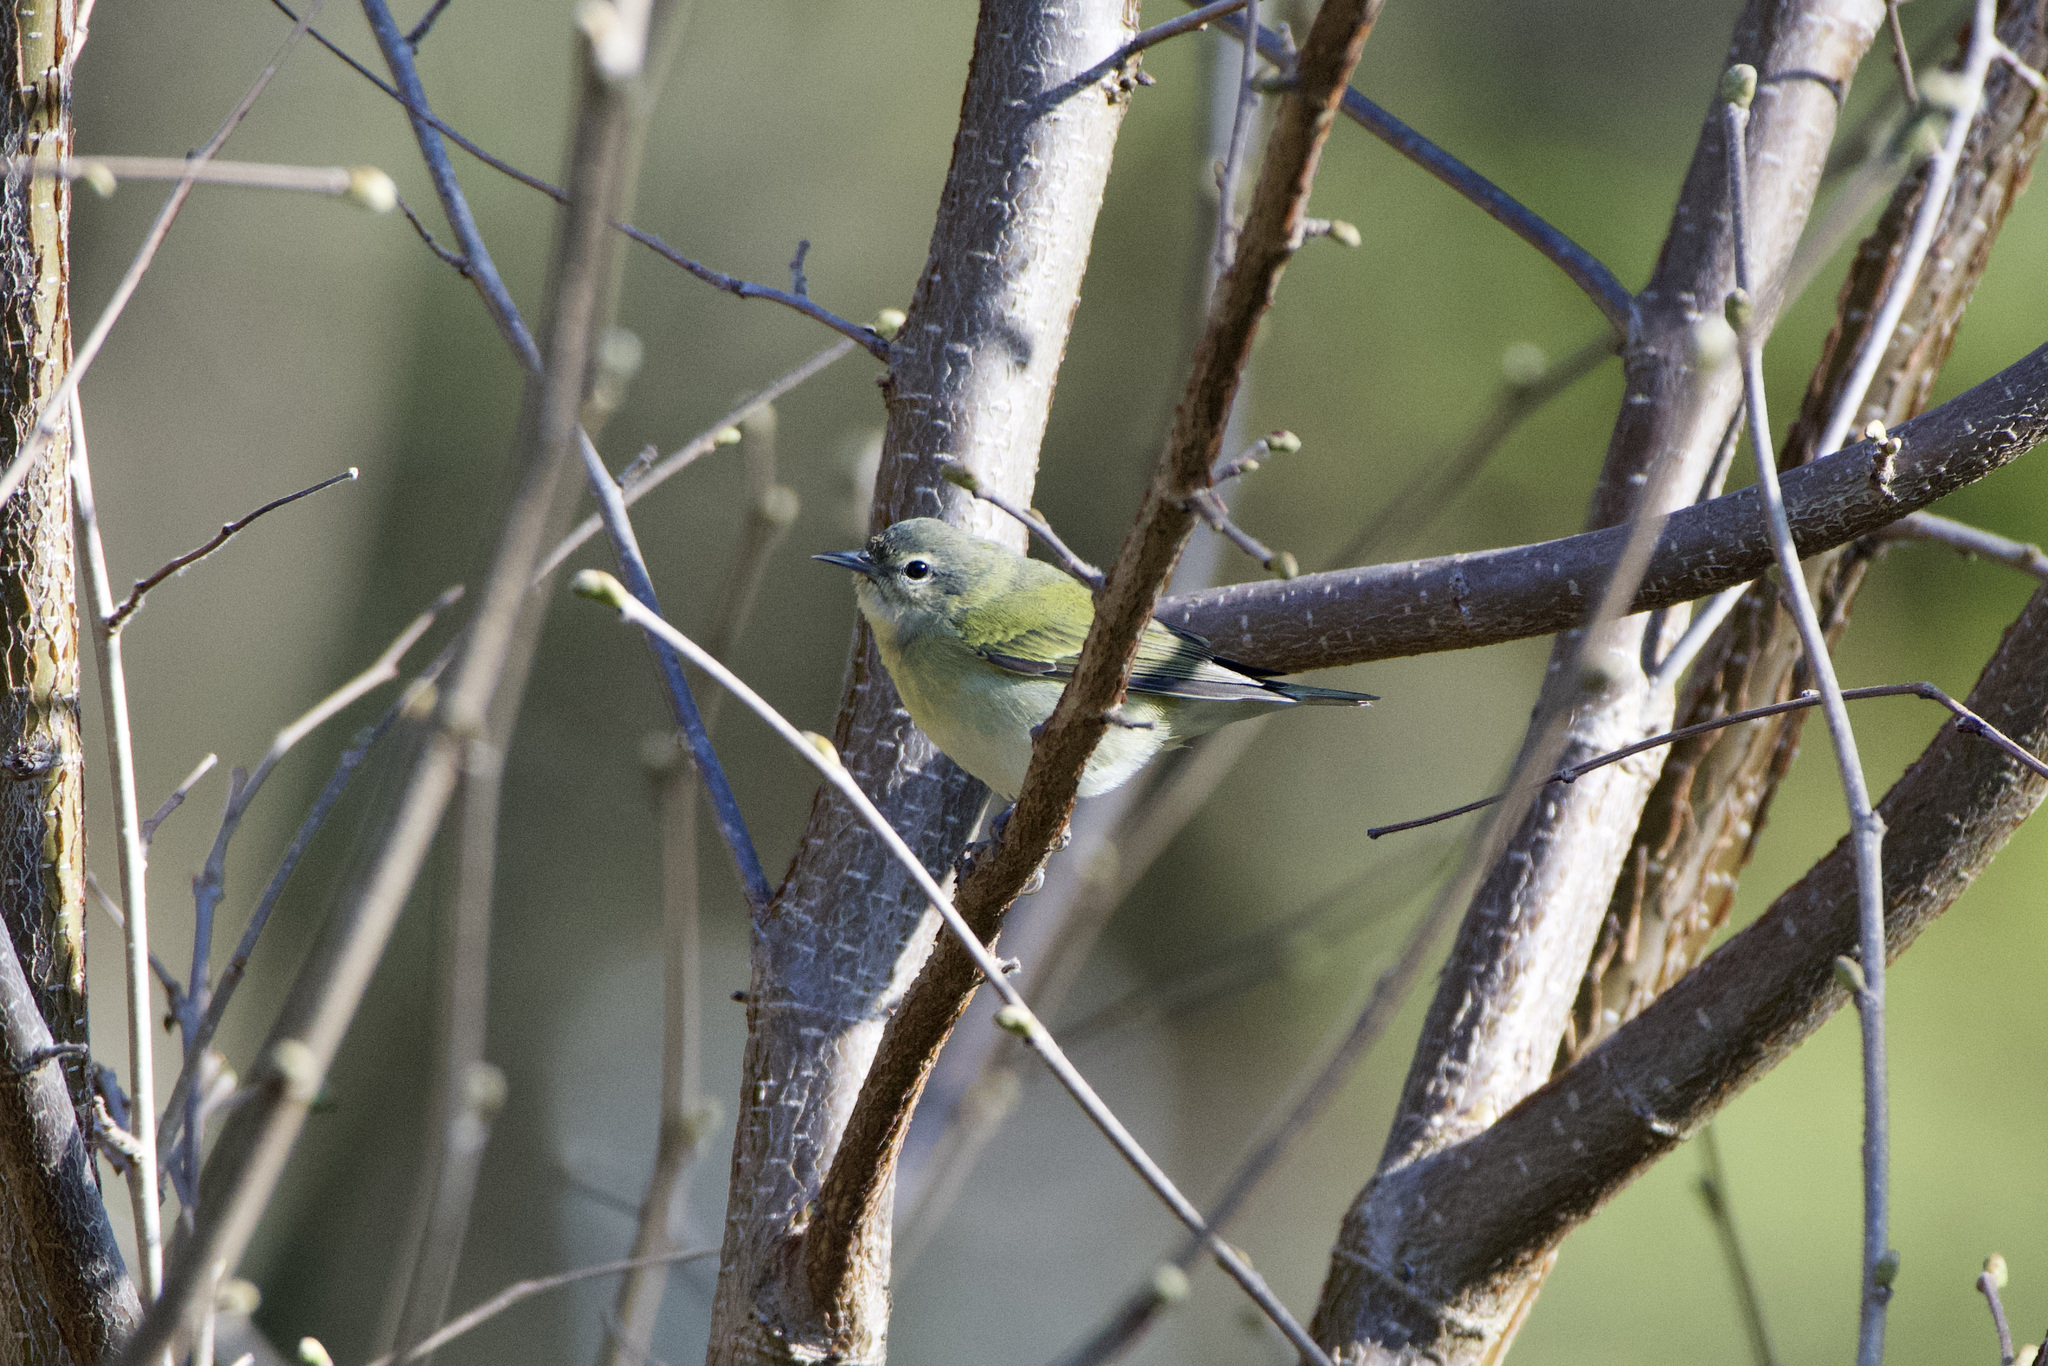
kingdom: Animalia
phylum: Chordata
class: Aves
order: Passeriformes
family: Parulidae
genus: Leiothlypis
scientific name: Leiothlypis peregrina
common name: Tennessee warbler
